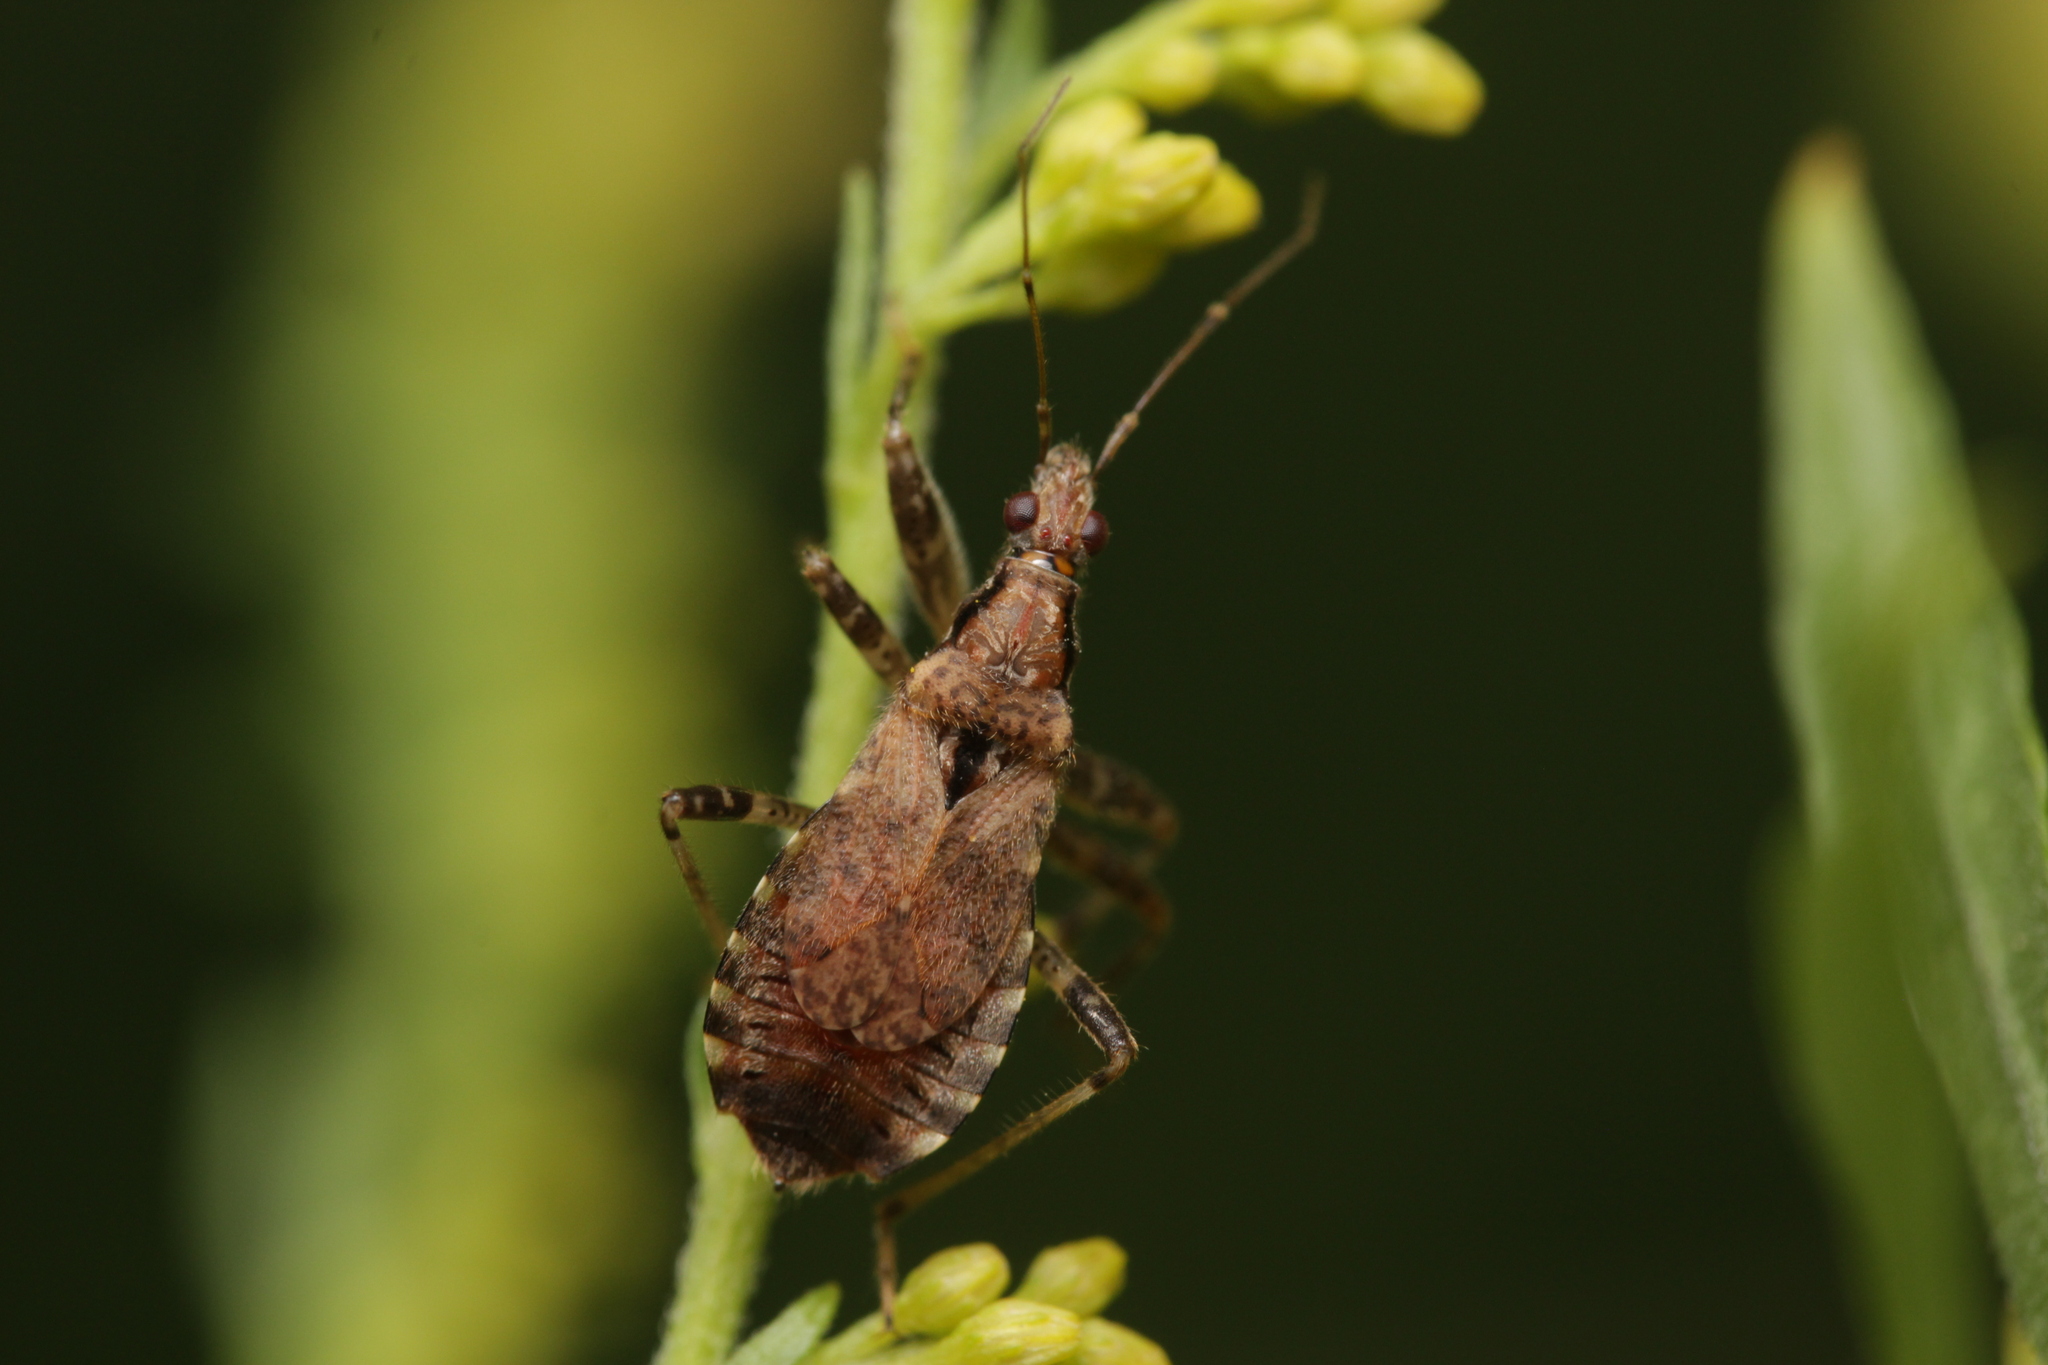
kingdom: Animalia
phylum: Arthropoda
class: Insecta
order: Hemiptera
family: Nabidae
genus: Himacerus
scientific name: Himacerus mirmicoides
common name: Ant damsel bug
